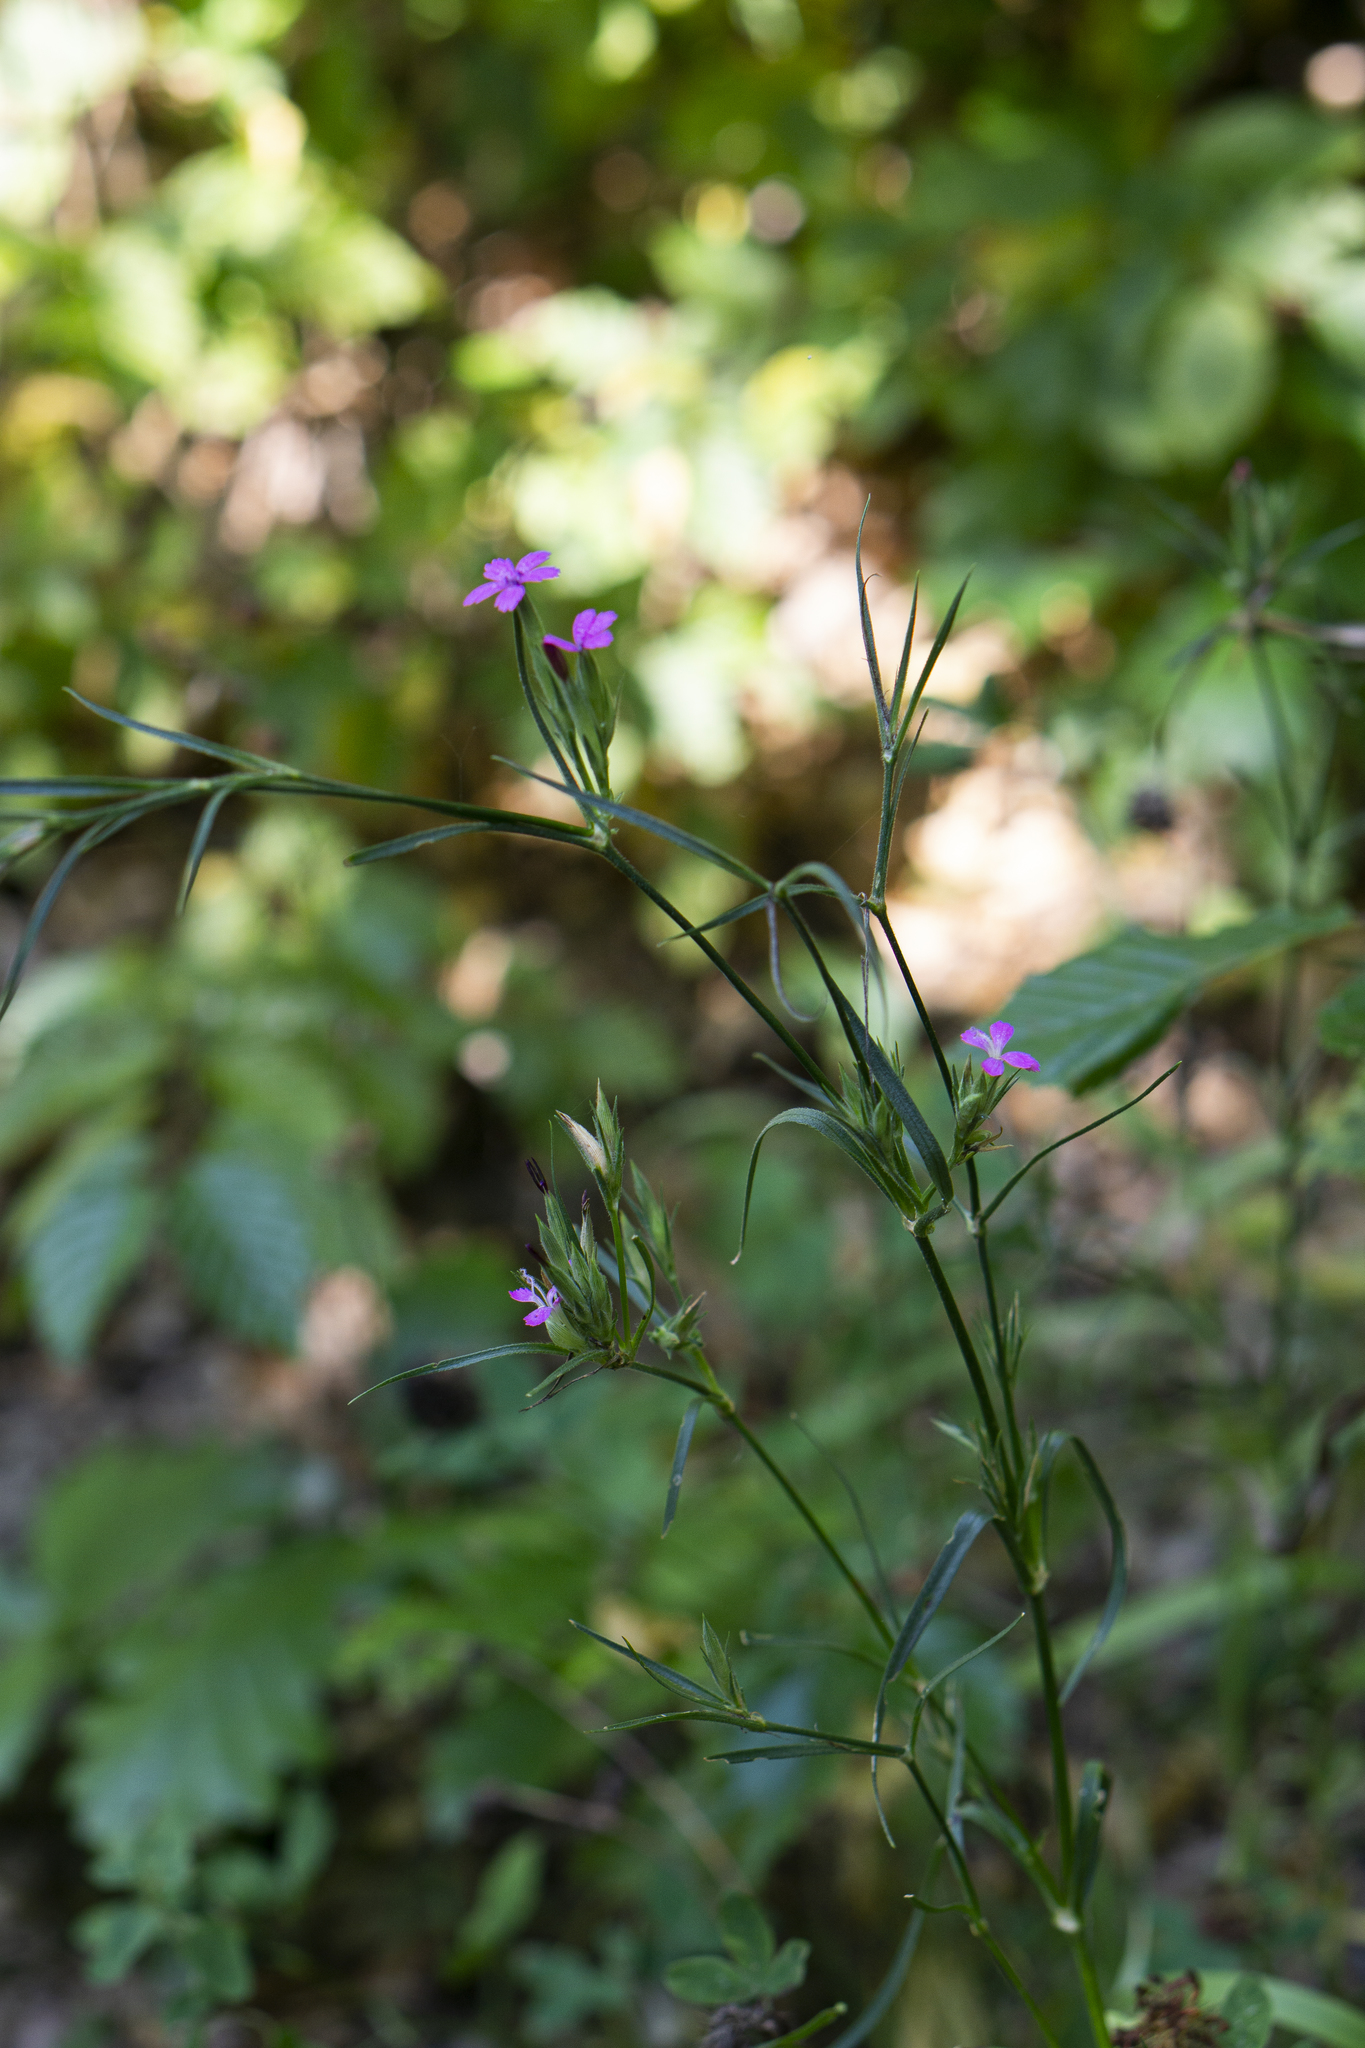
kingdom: Plantae
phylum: Tracheophyta
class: Magnoliopsida
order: Caryophyllales
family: Caryophyllaceae
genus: Dianthus
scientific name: Dianthus armeria
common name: Deptford pink
